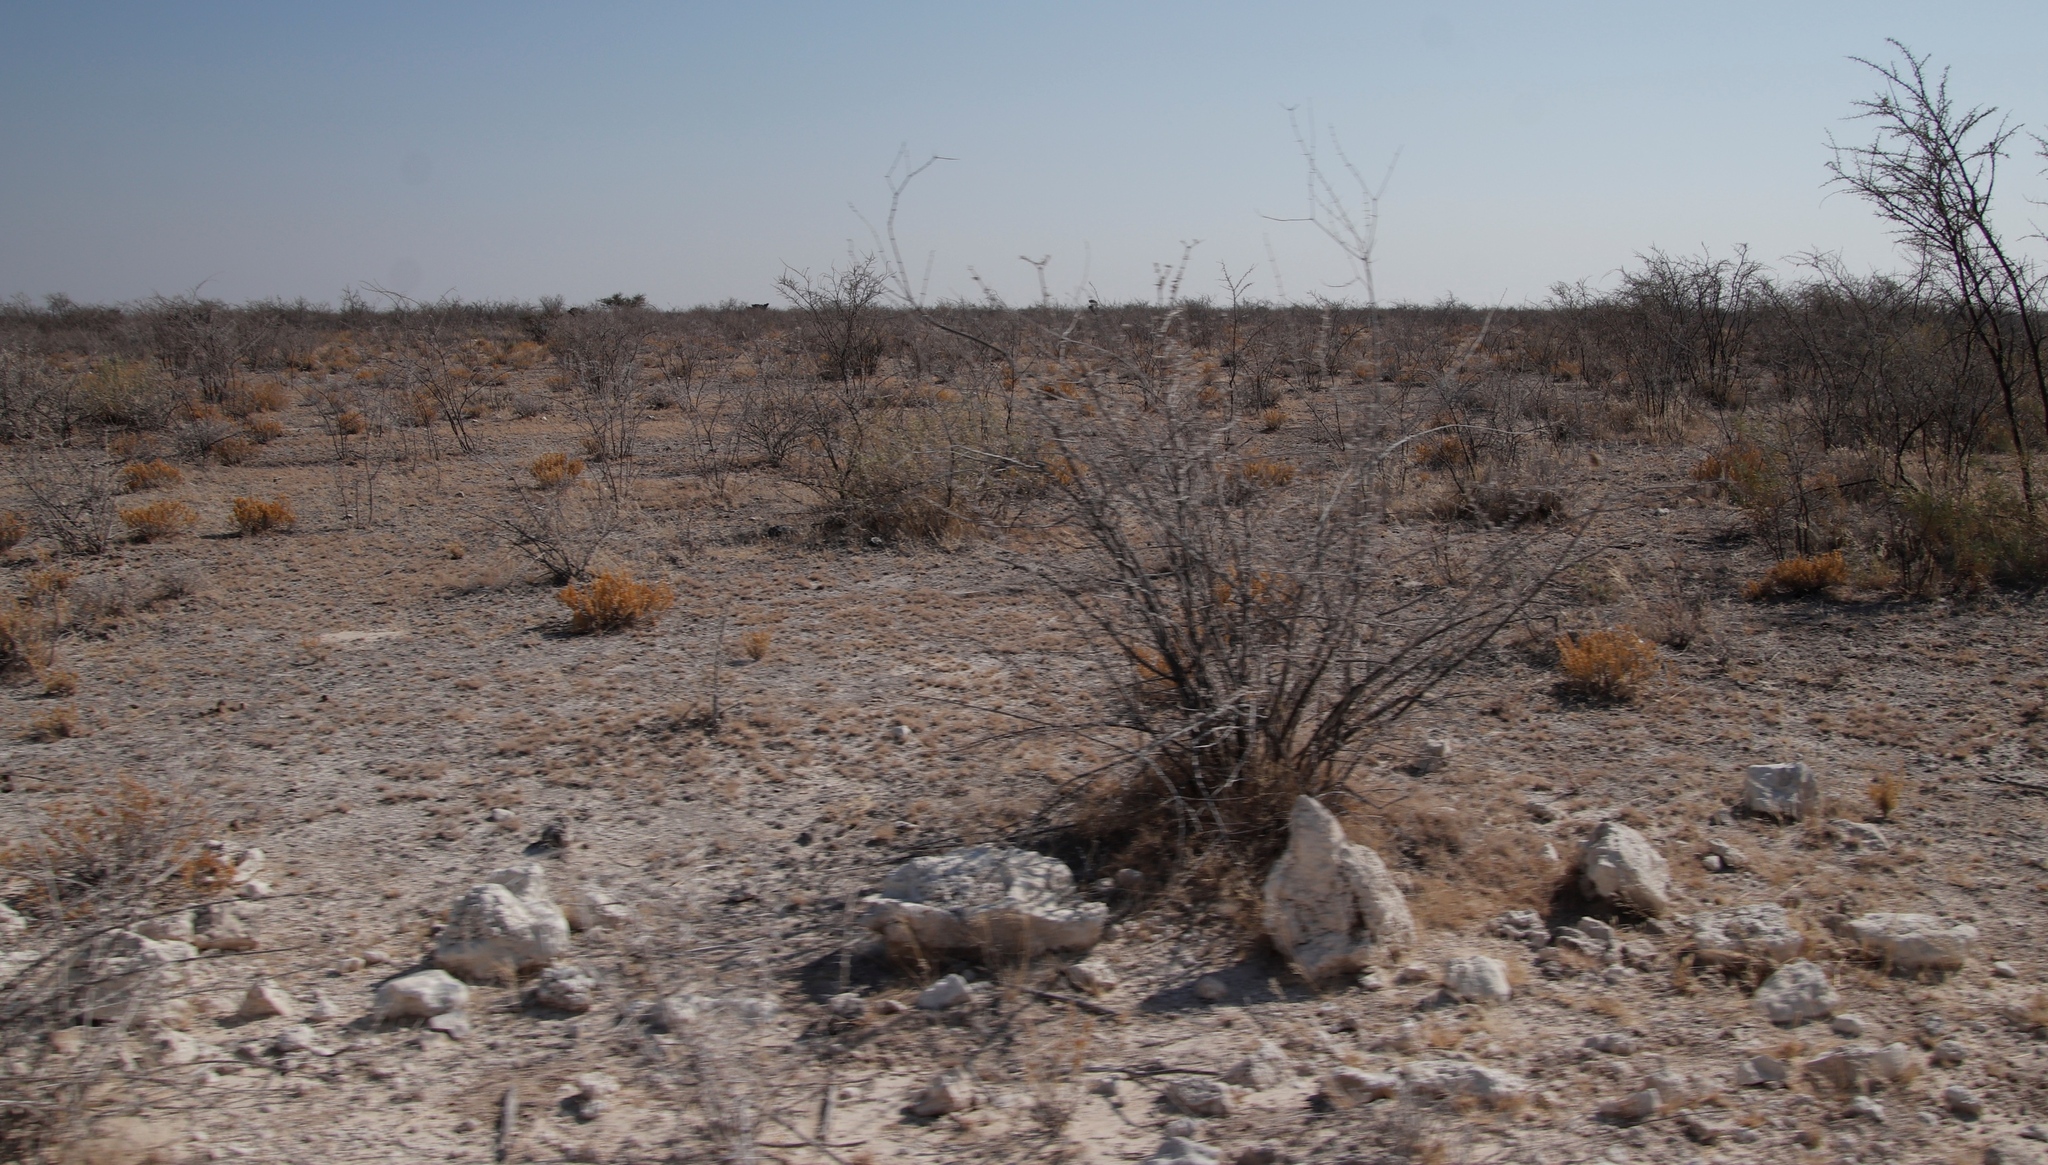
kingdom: Plantae
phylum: Tracheophyta
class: Magnoliopsida
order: Fabales
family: Fabaceae
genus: Vachellia
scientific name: Vachellia nebrownii
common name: Water acacia
